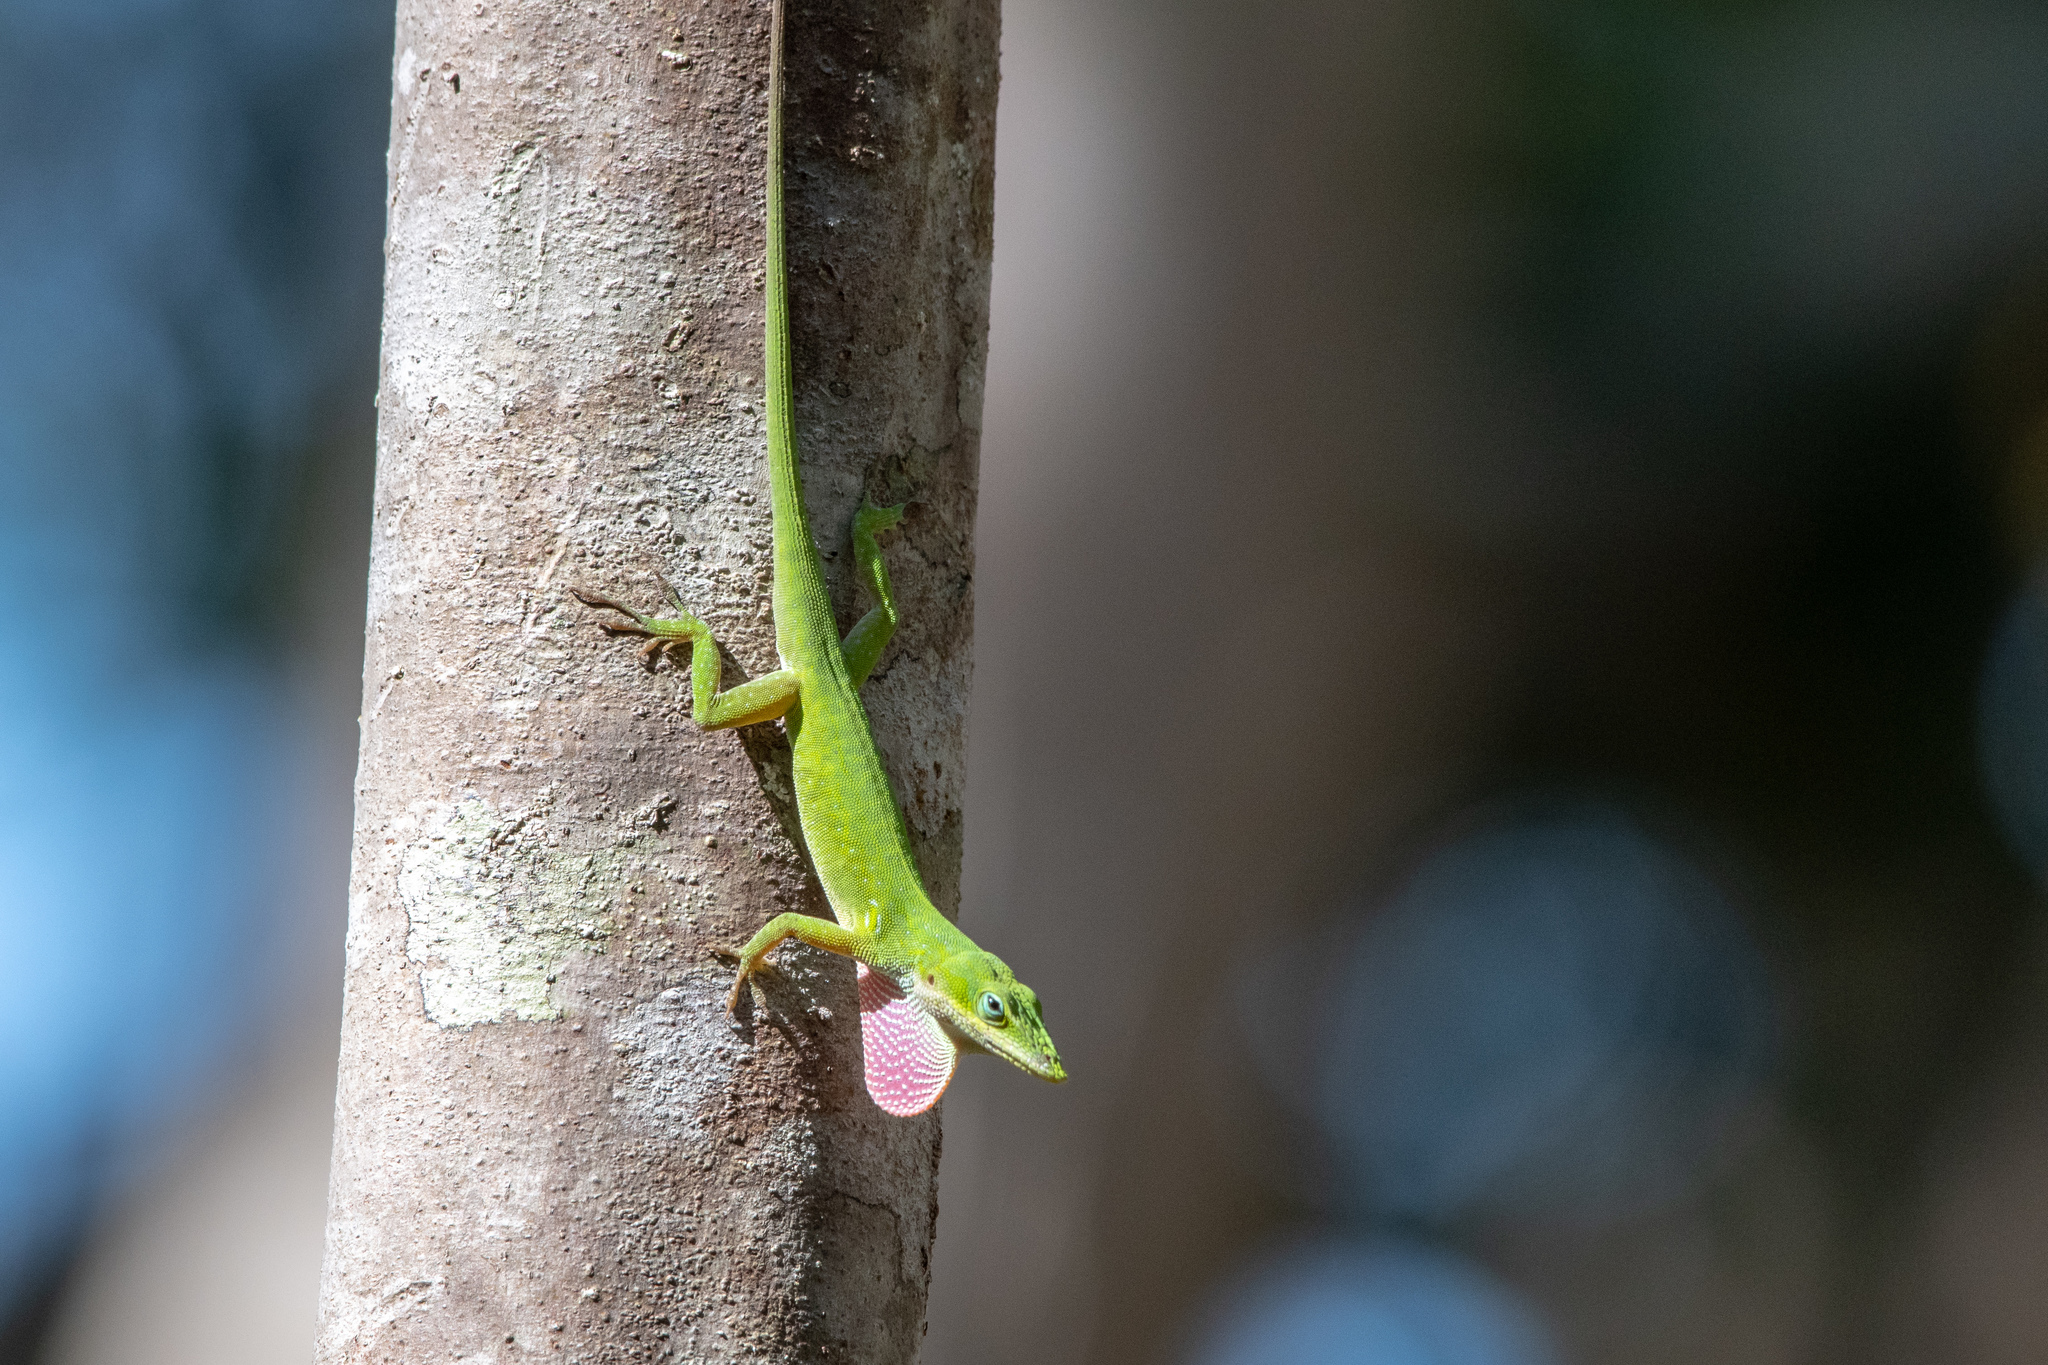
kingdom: Animalia
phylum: Chordata
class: Squamata
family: Dactyloidae
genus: Anolis
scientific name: Anolis carolinensis
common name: Green anole
